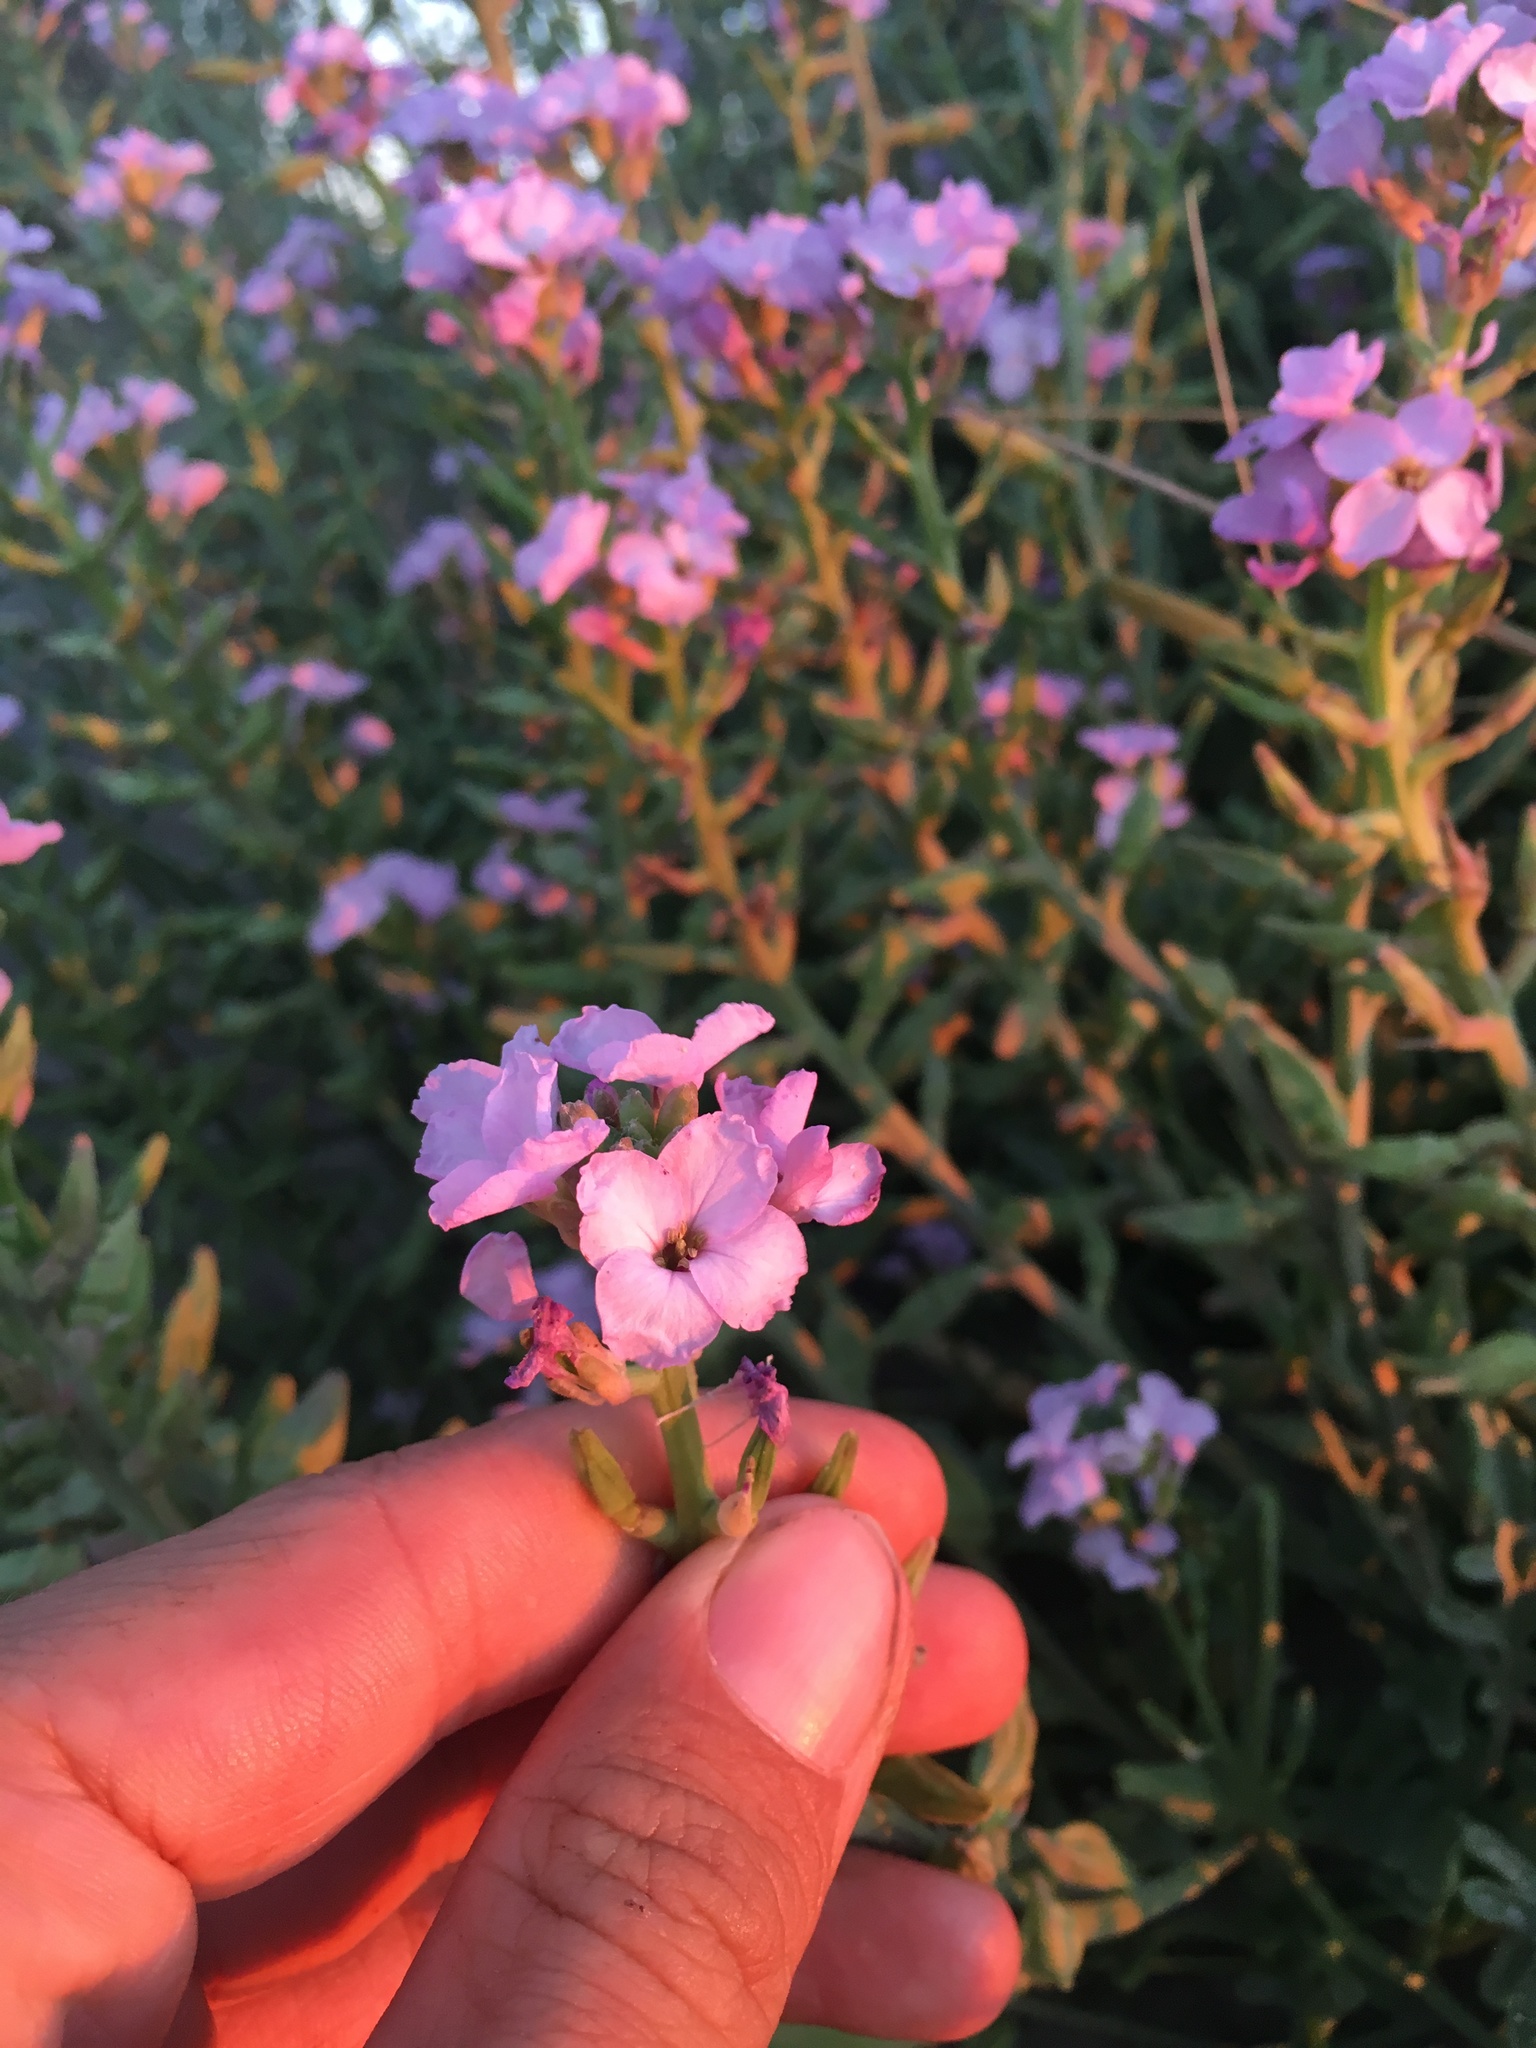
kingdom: Plantae
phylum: Tracheophyta
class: Magnoliopsida
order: Brassicales
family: Brassicaceae
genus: Cakile
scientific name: Cakile maritima
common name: Sea rocket
